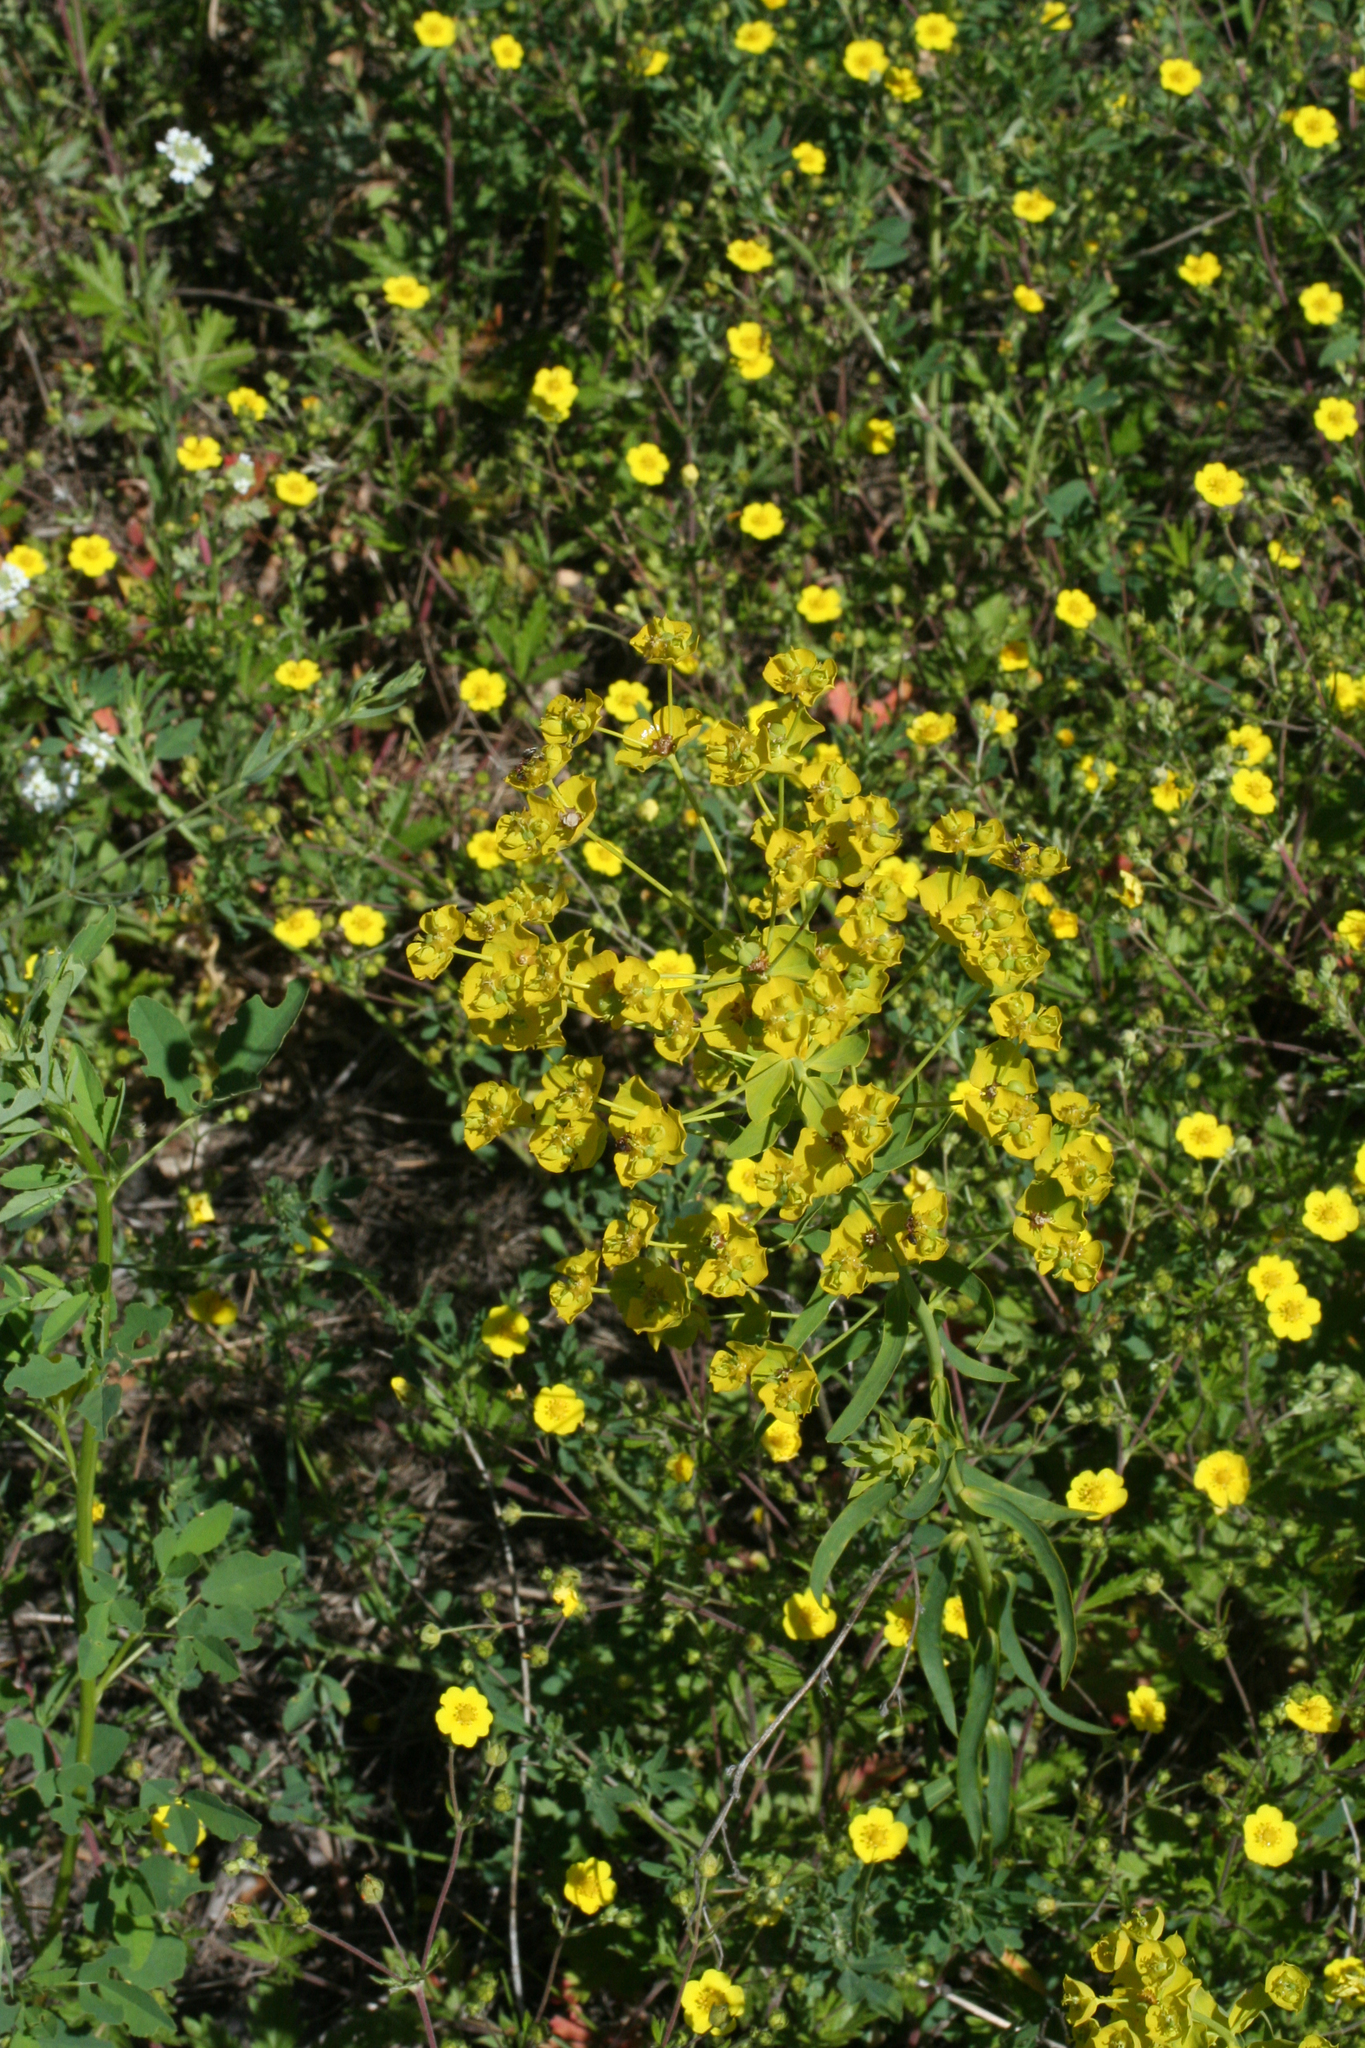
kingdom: Plantae
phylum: Tracheophyta
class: Magnoliopsida
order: Malpighiales
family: Euphorbiaceae
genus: Euphorbia
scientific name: Euphorbia virgata
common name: Leafy spurge
